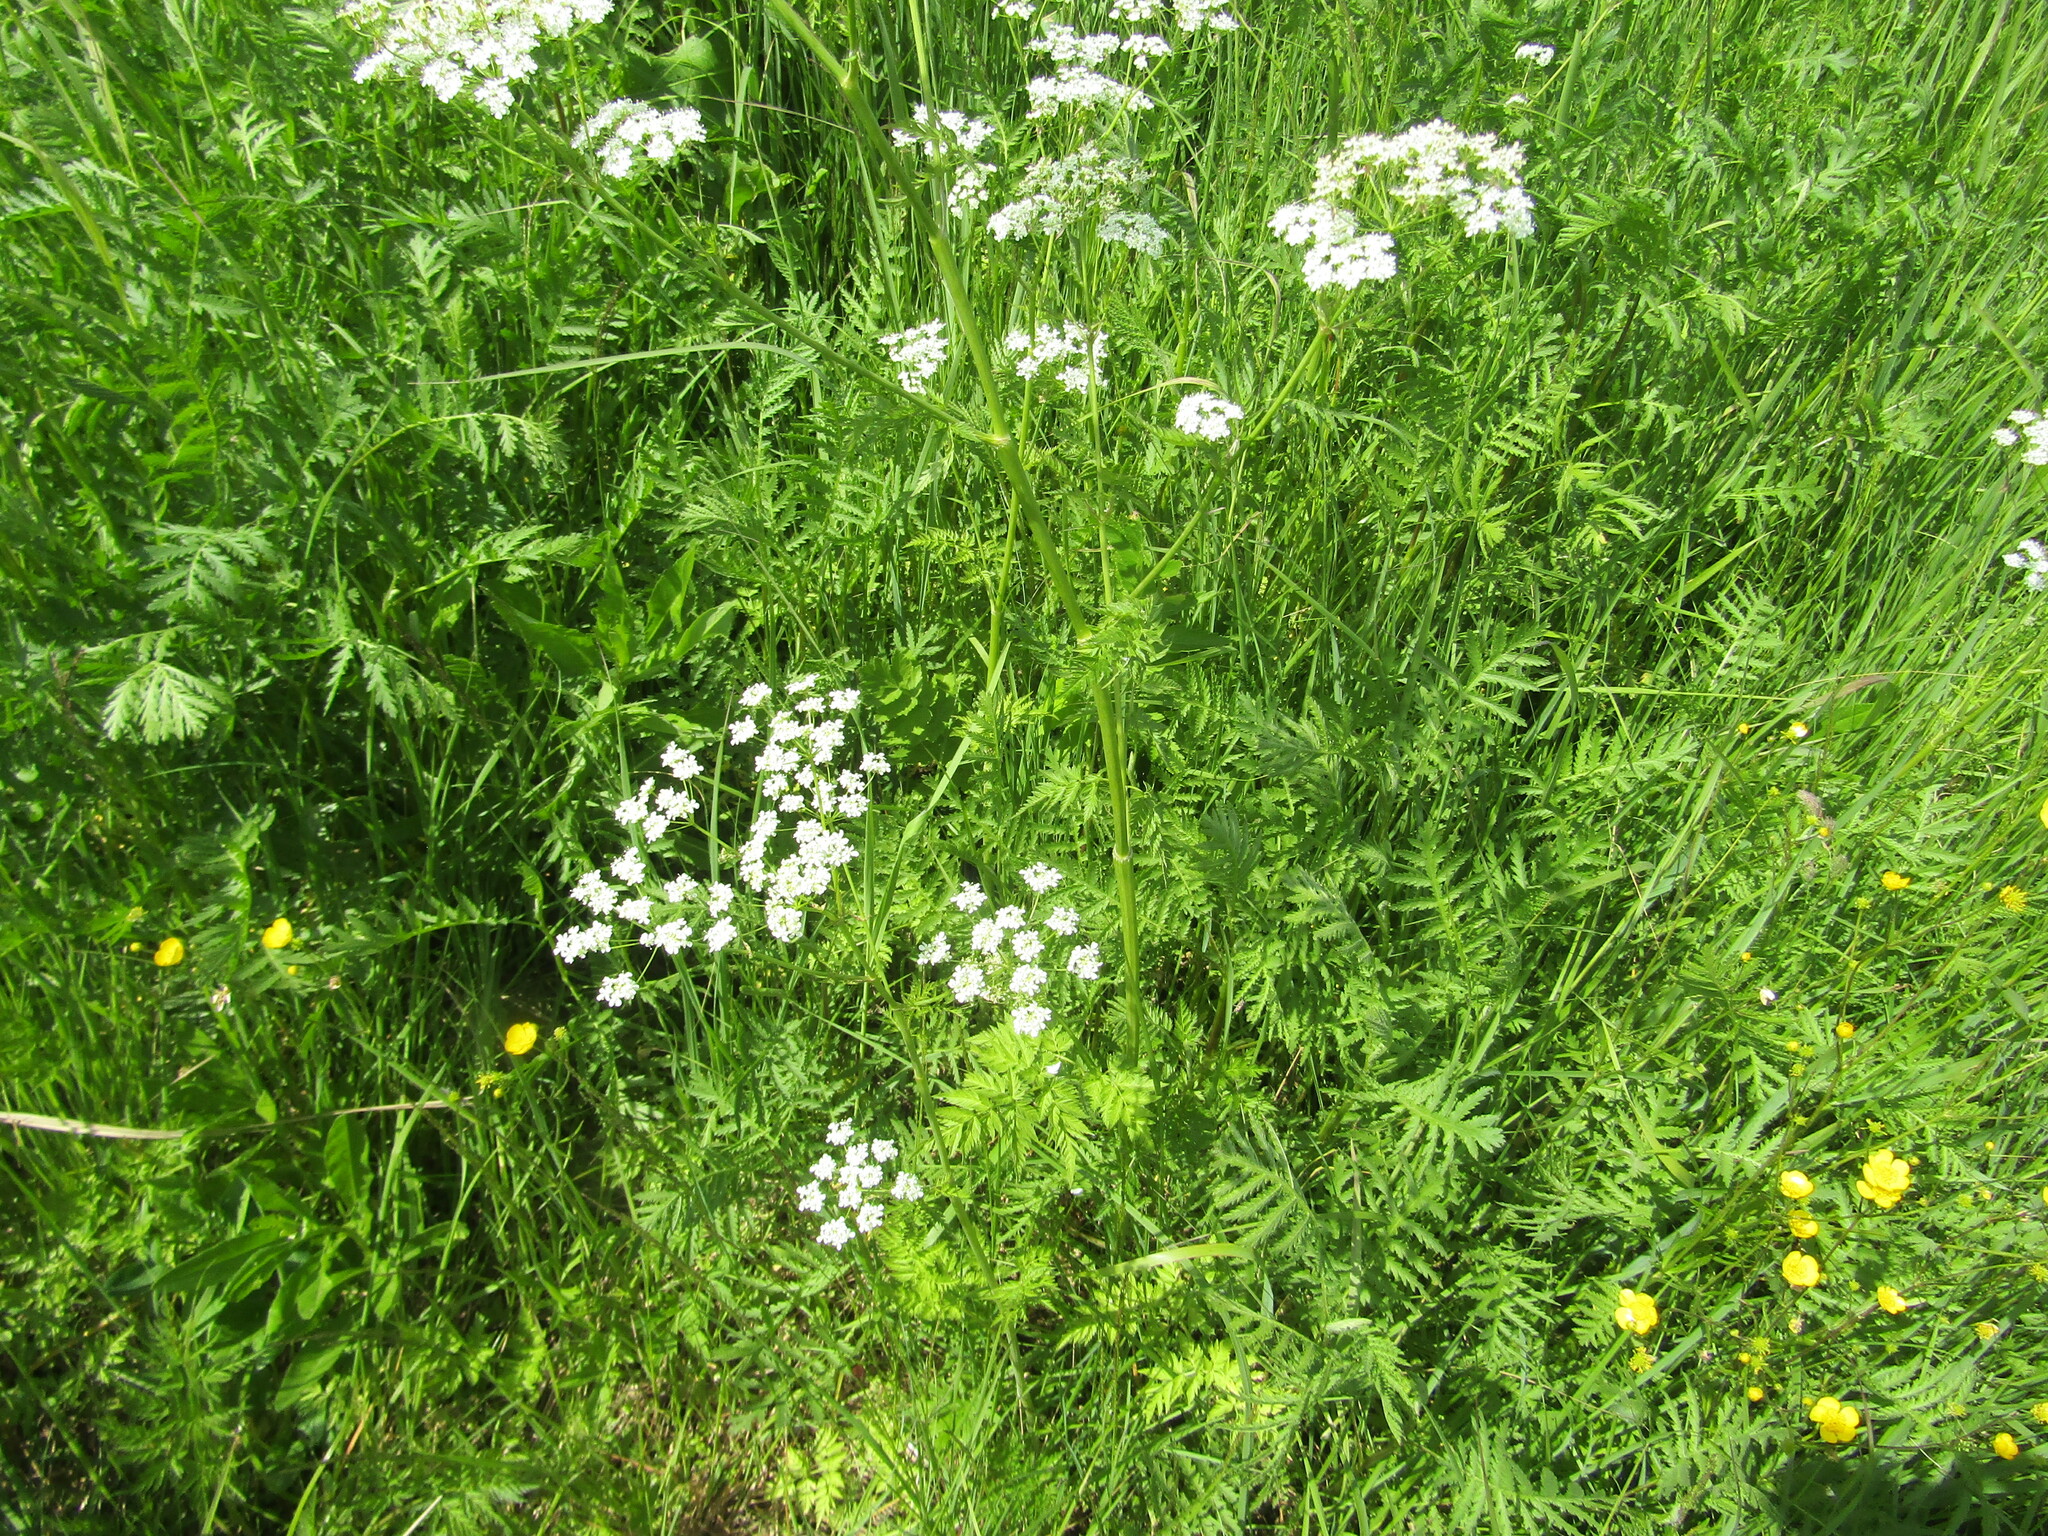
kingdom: Plantae
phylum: Tracheophyta
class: Magnoliopsida
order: Apiales
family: Apiaceae
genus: Anthriscus
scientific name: Anthriscus sylvestris
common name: Cow parsley
